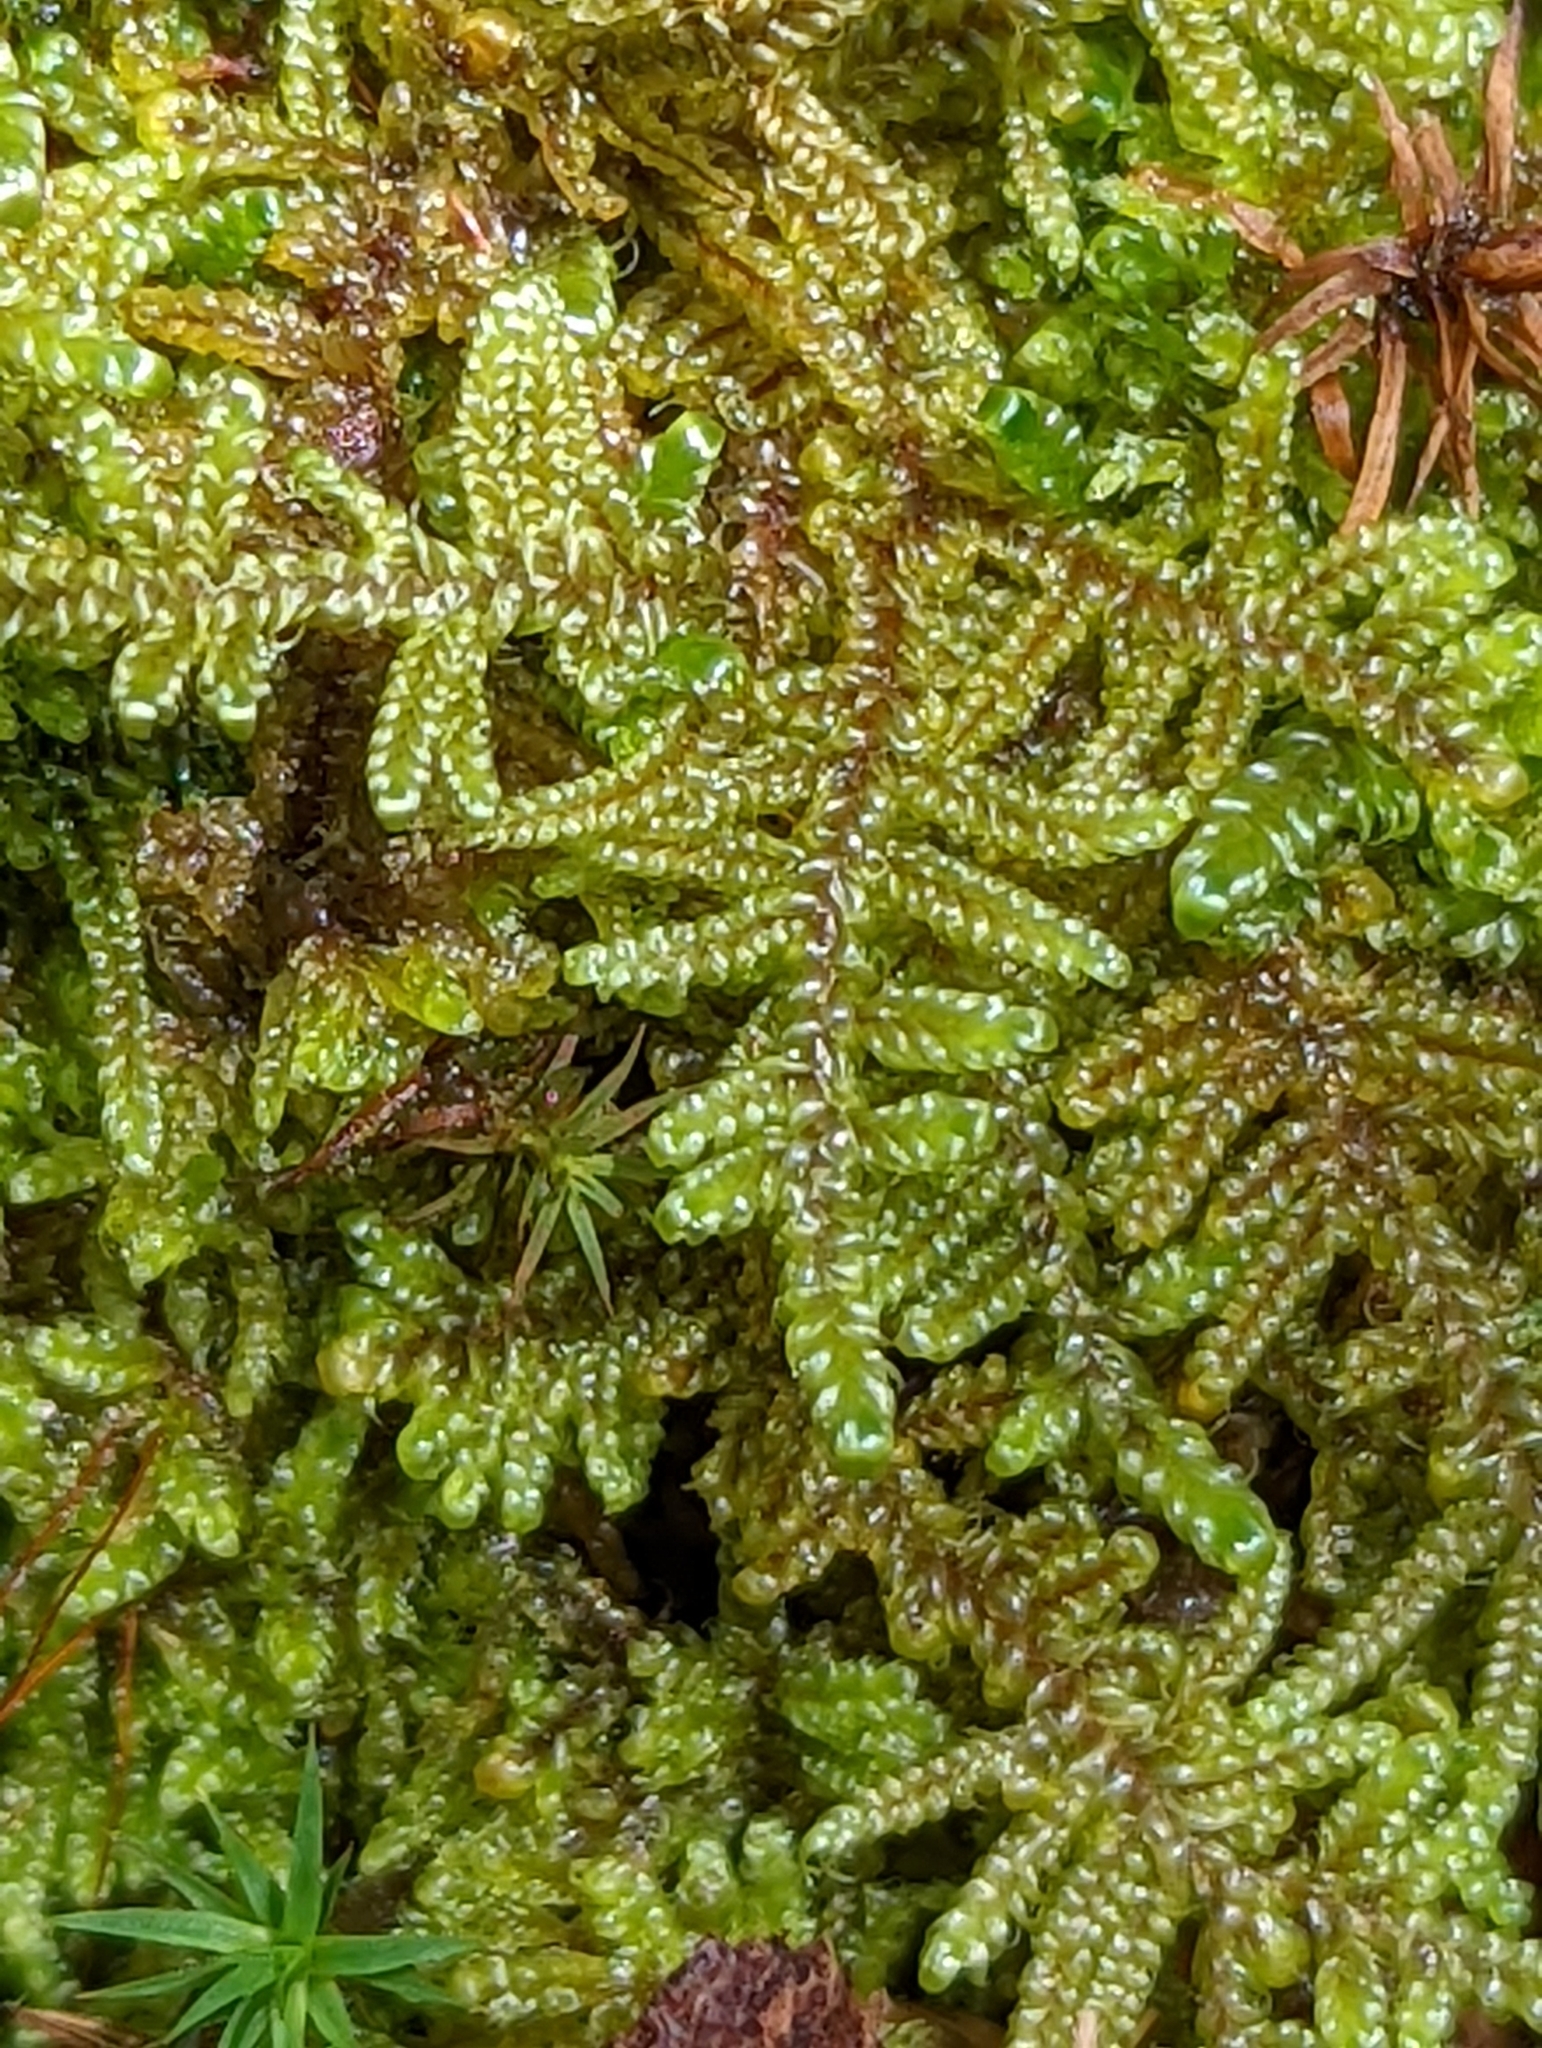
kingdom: Plantae
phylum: Bryophyta
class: Bryopsida
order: Hypnales
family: Callicladiaceae
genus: Callicladium
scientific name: Callicladium imponens
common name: Brocade moss
